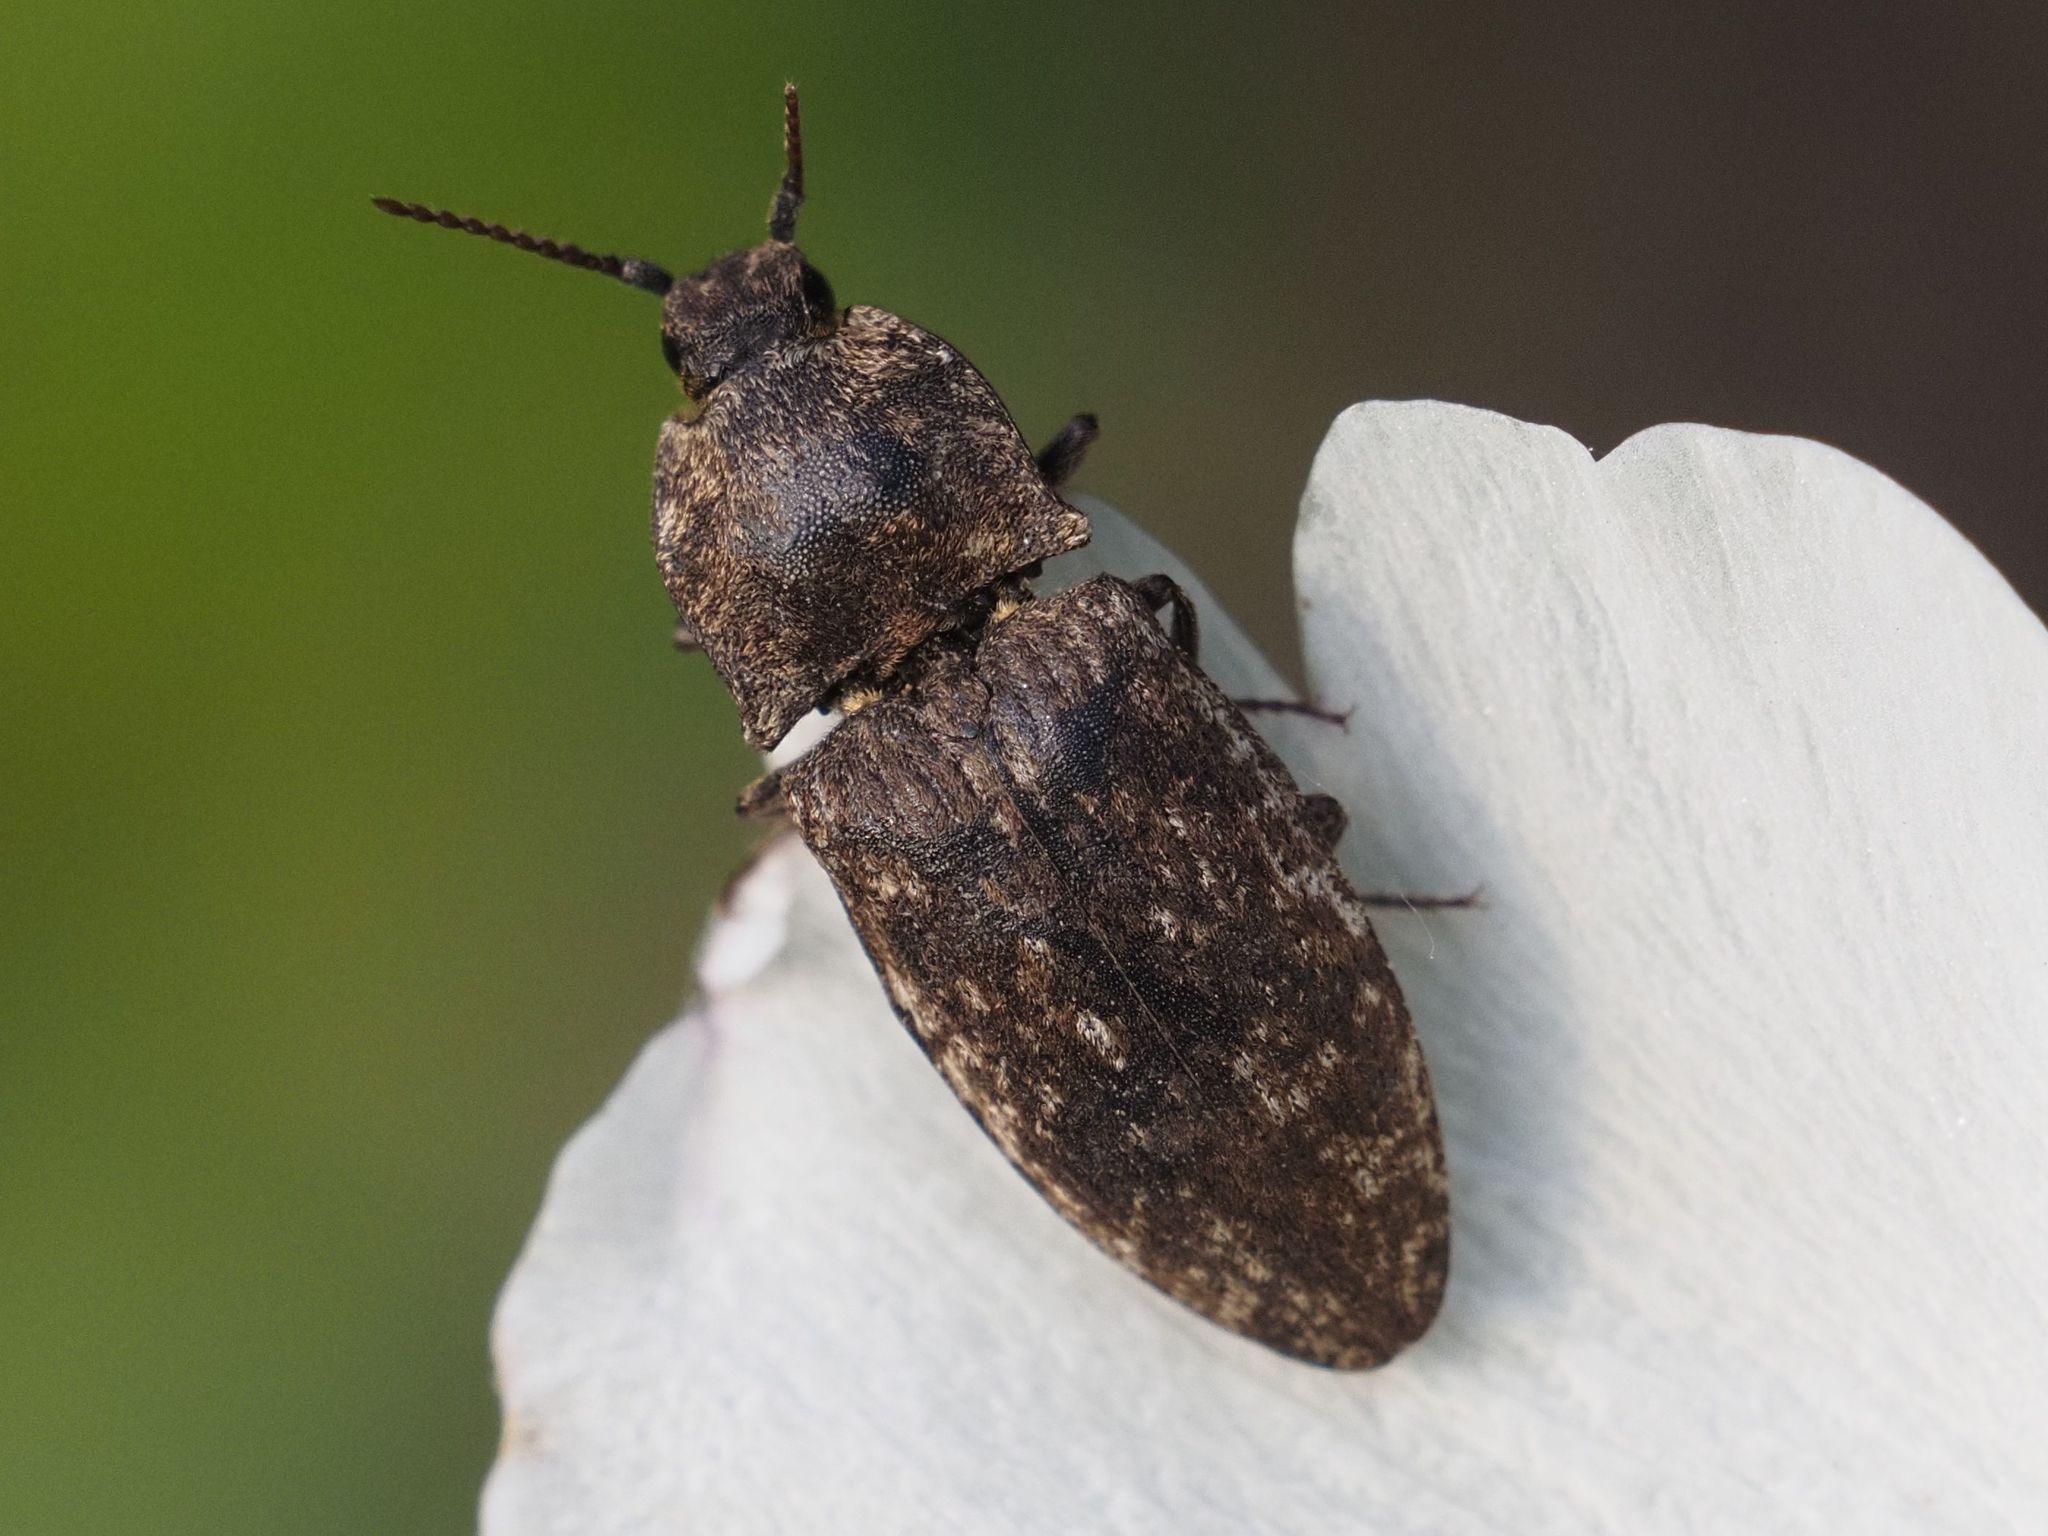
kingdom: Animalia
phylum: Arthropoda
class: Insecta
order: Coleoptera
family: Elateridae
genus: Agrypnus
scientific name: Agrypnus murinus
